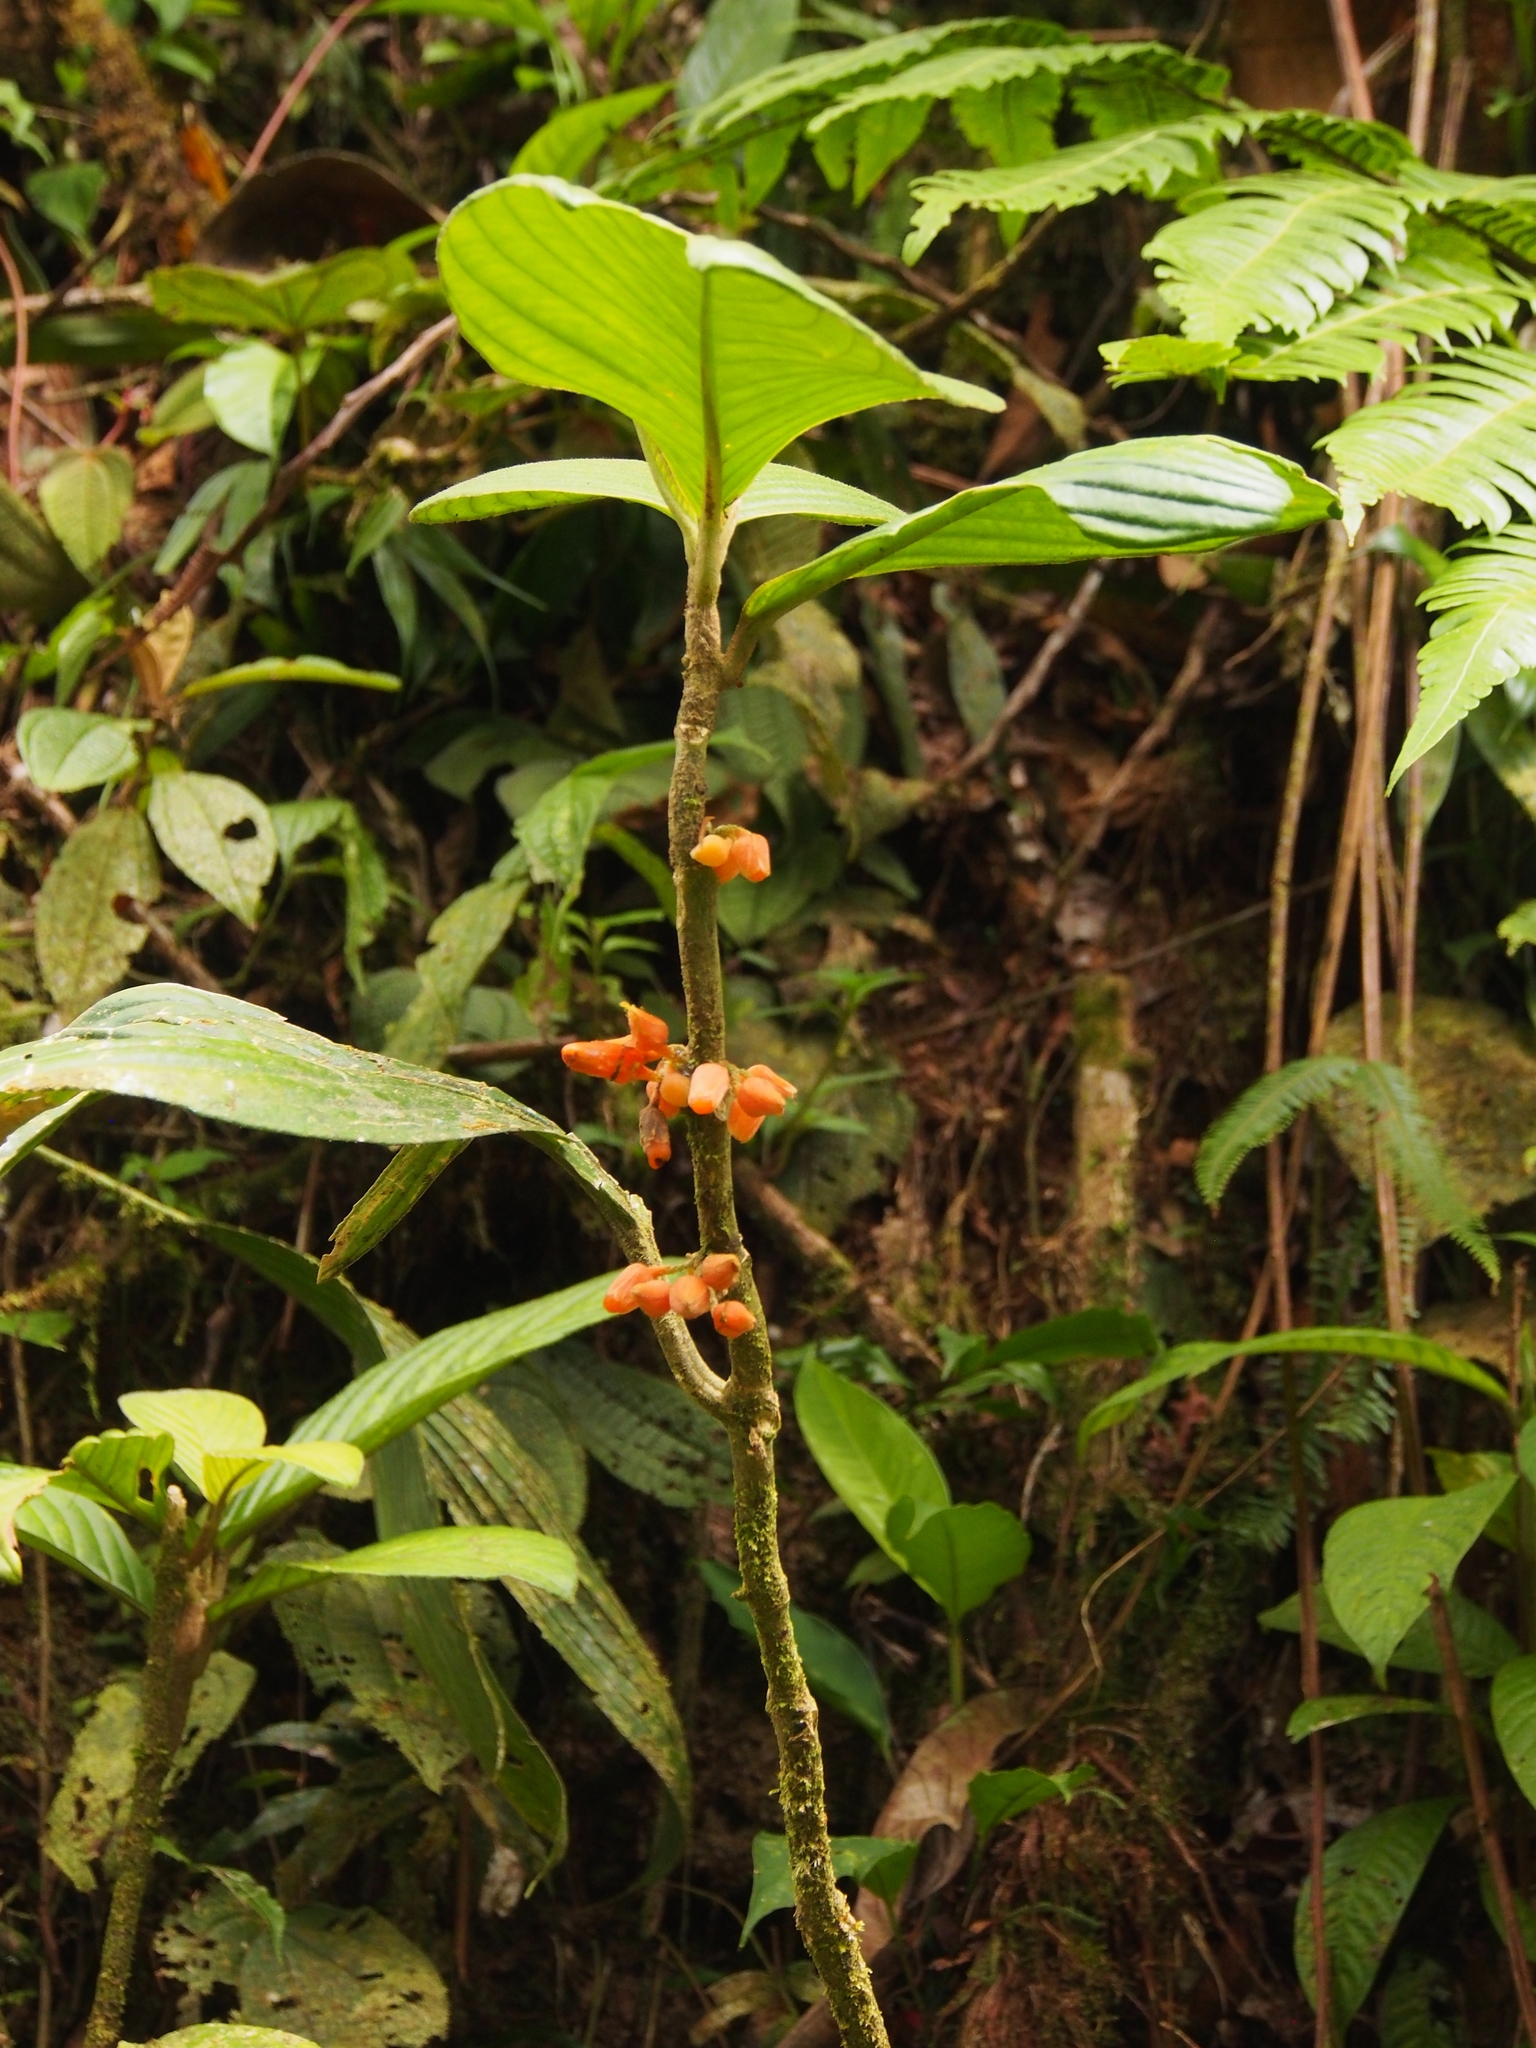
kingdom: Plantae
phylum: Tracheophyta
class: Magnoliopsida
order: Lamiales
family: Gesneriaceae
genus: Besleria
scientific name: Besleria robusta
